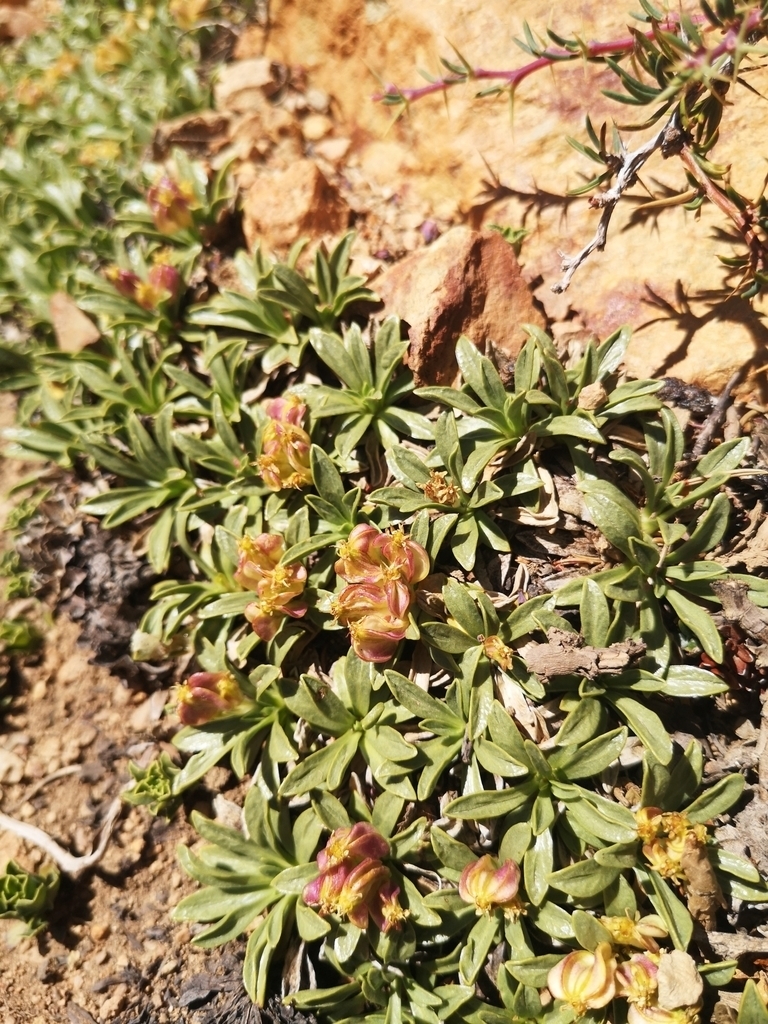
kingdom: Plantae
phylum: Tracheophyta
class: Magnoliopsida
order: Apiales
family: Apiaceae
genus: Azorella
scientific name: Azorella ruizii
